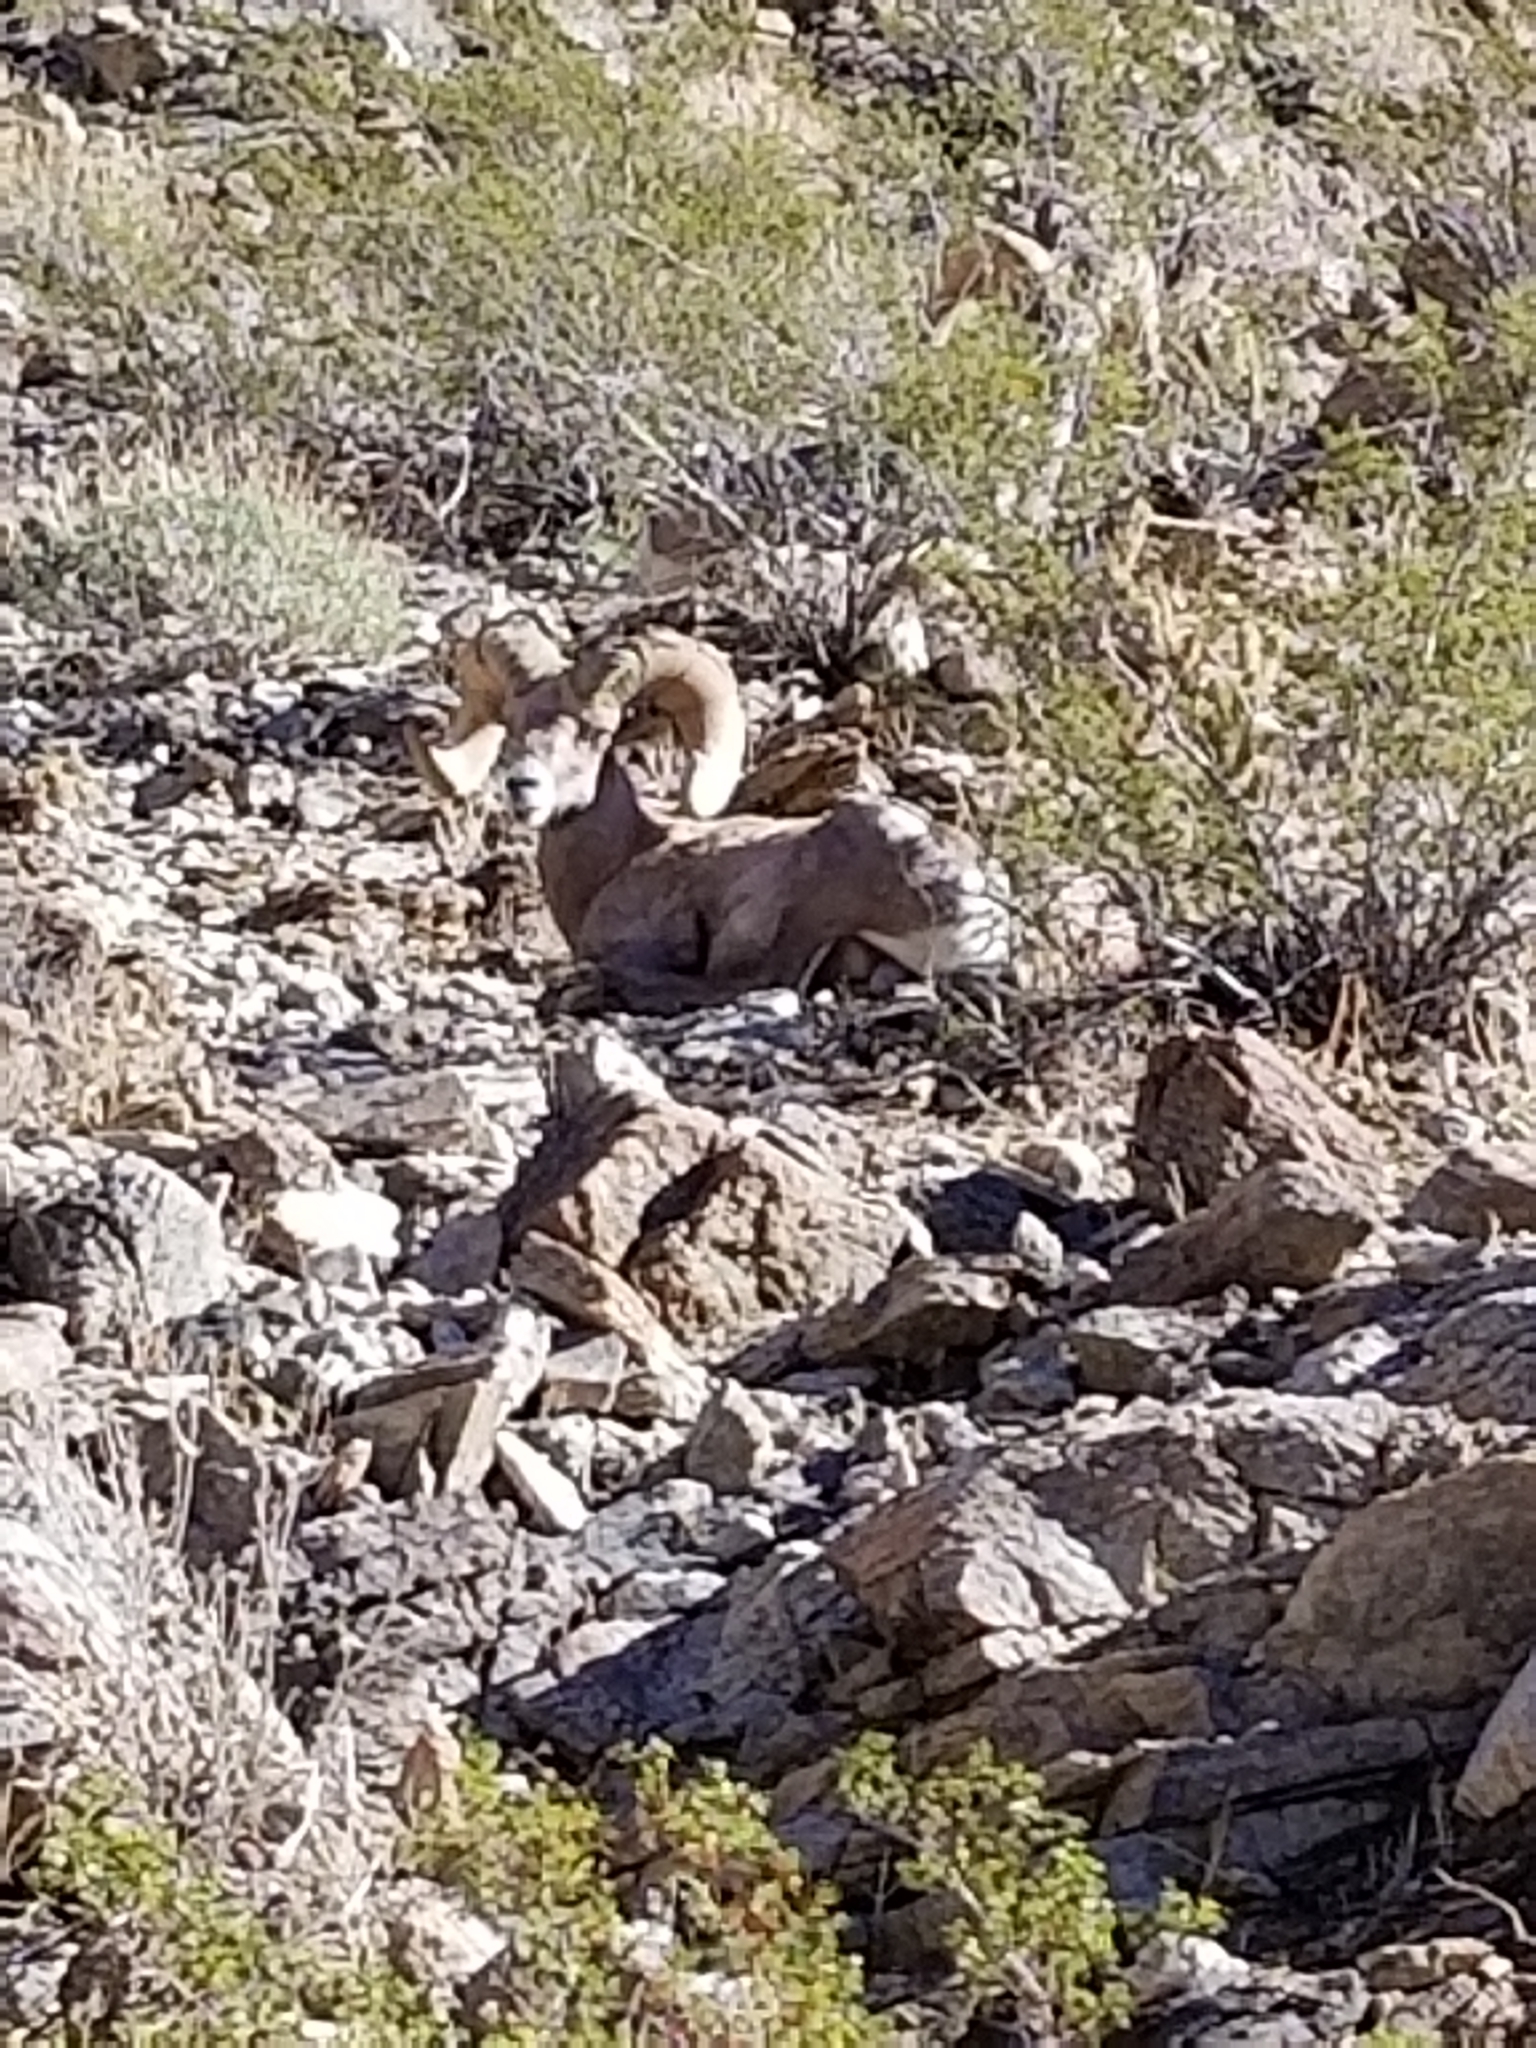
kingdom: Animalia
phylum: Chordata
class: Mammalia
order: Artiodactyla
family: Bovidae
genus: Ovis
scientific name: Ovis canadensis
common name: Bighorn sheep
